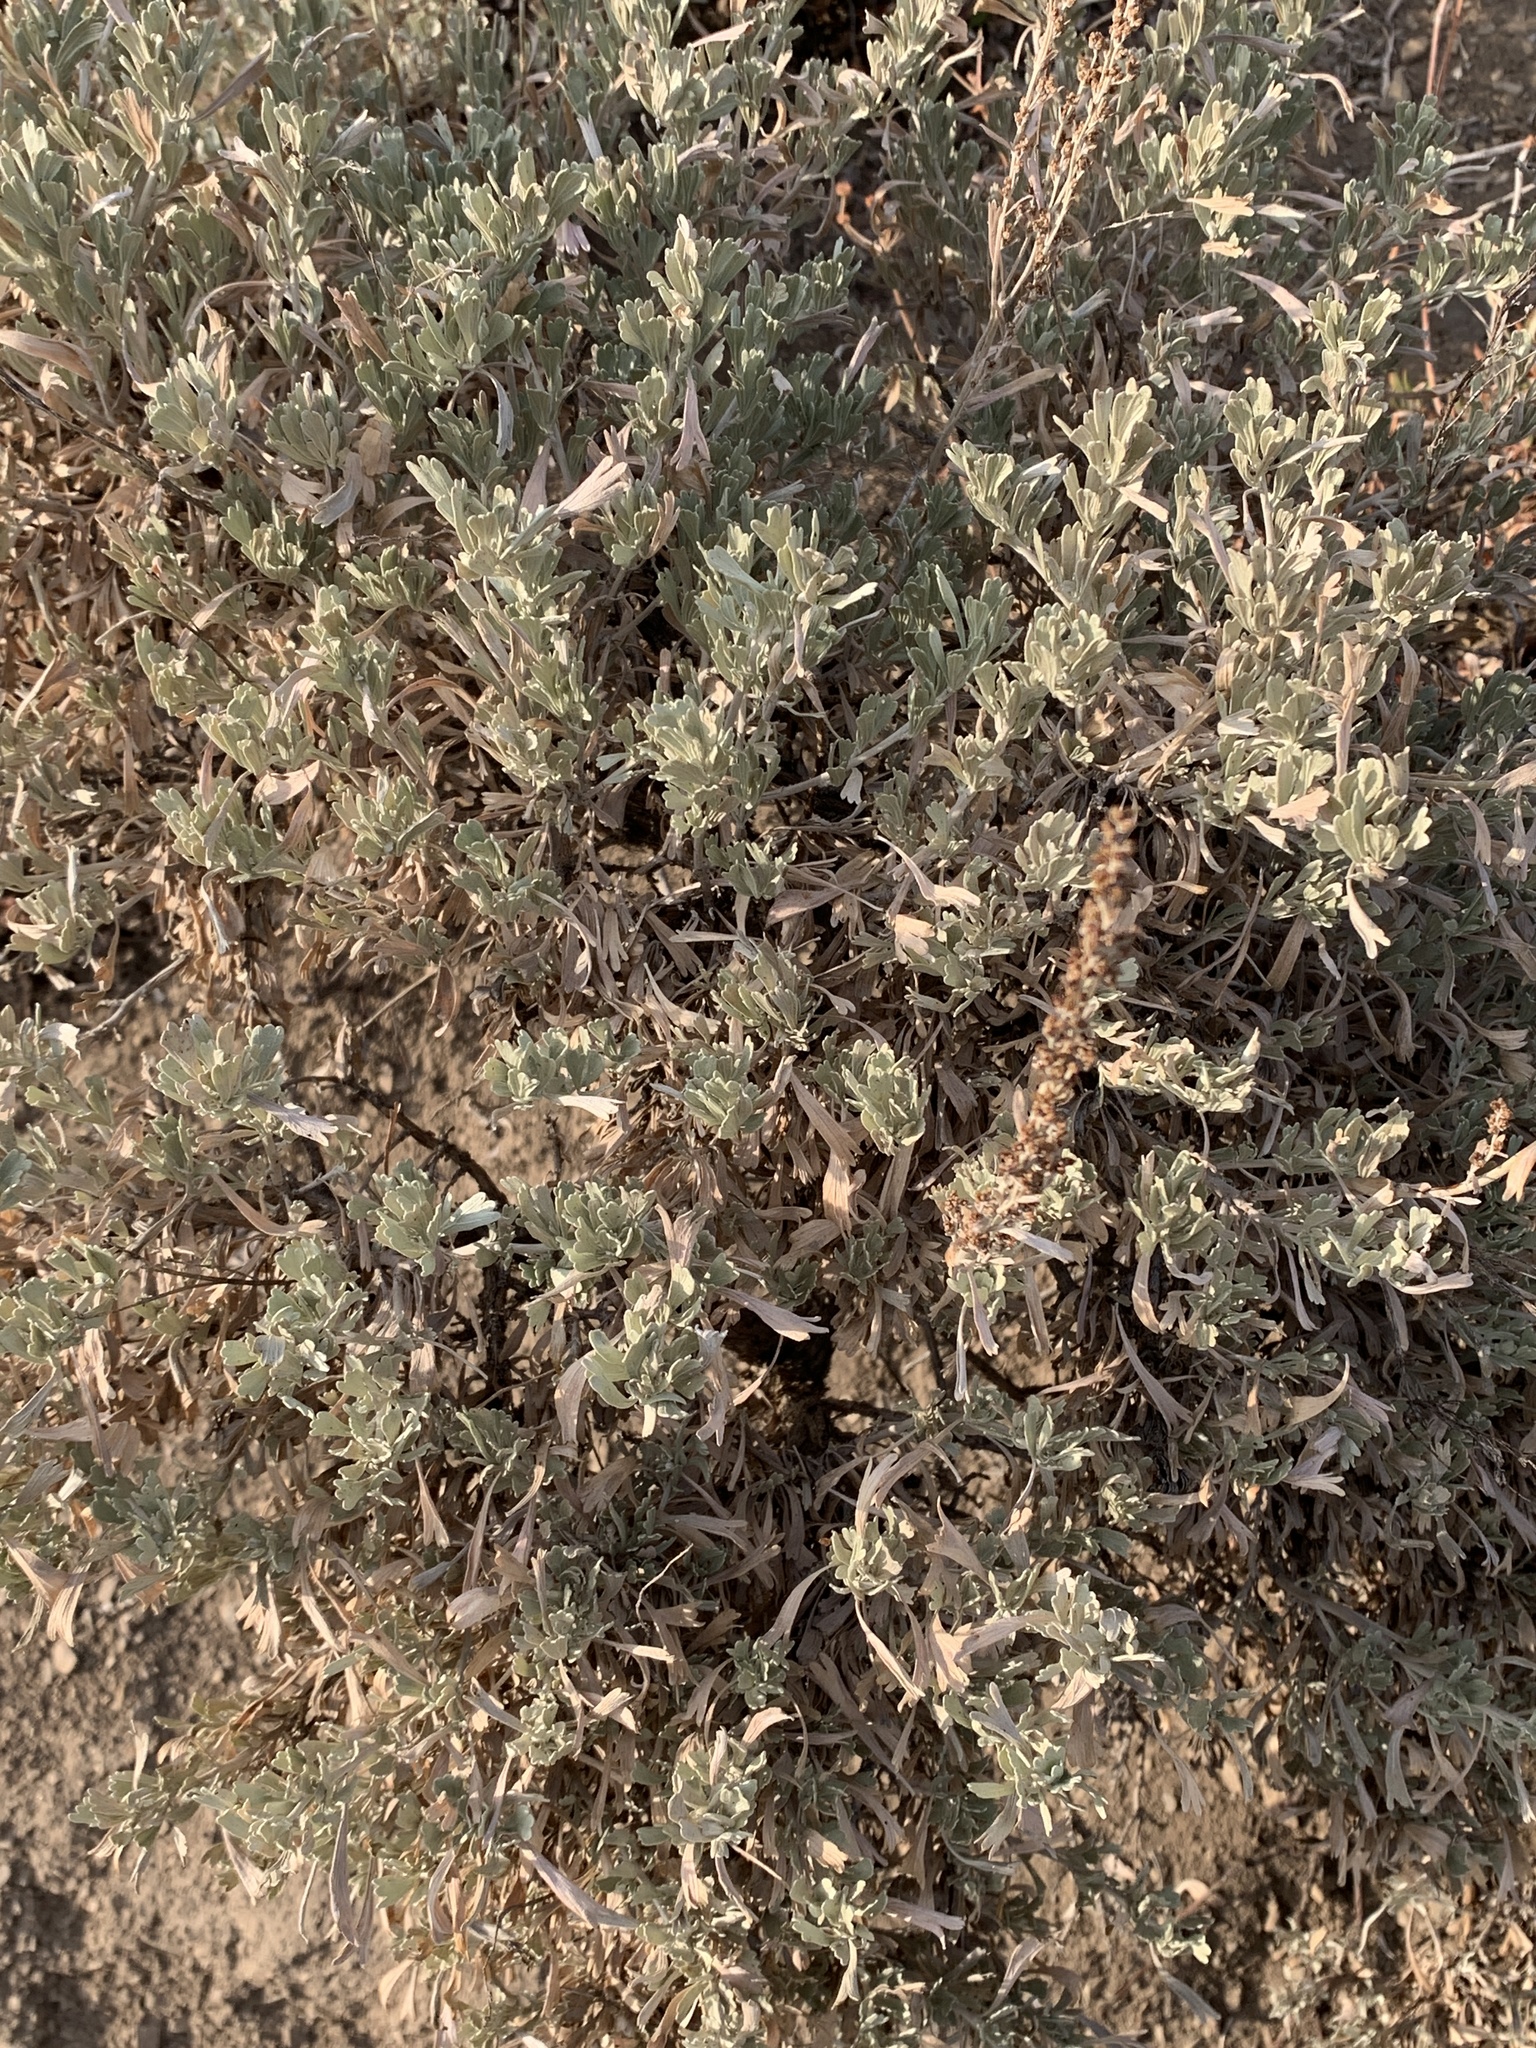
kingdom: Plantae
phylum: Tracheophyta
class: Magnoliopsida
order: Asterales
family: Asteraceae
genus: Artemisia
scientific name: Artemisia tridentata
